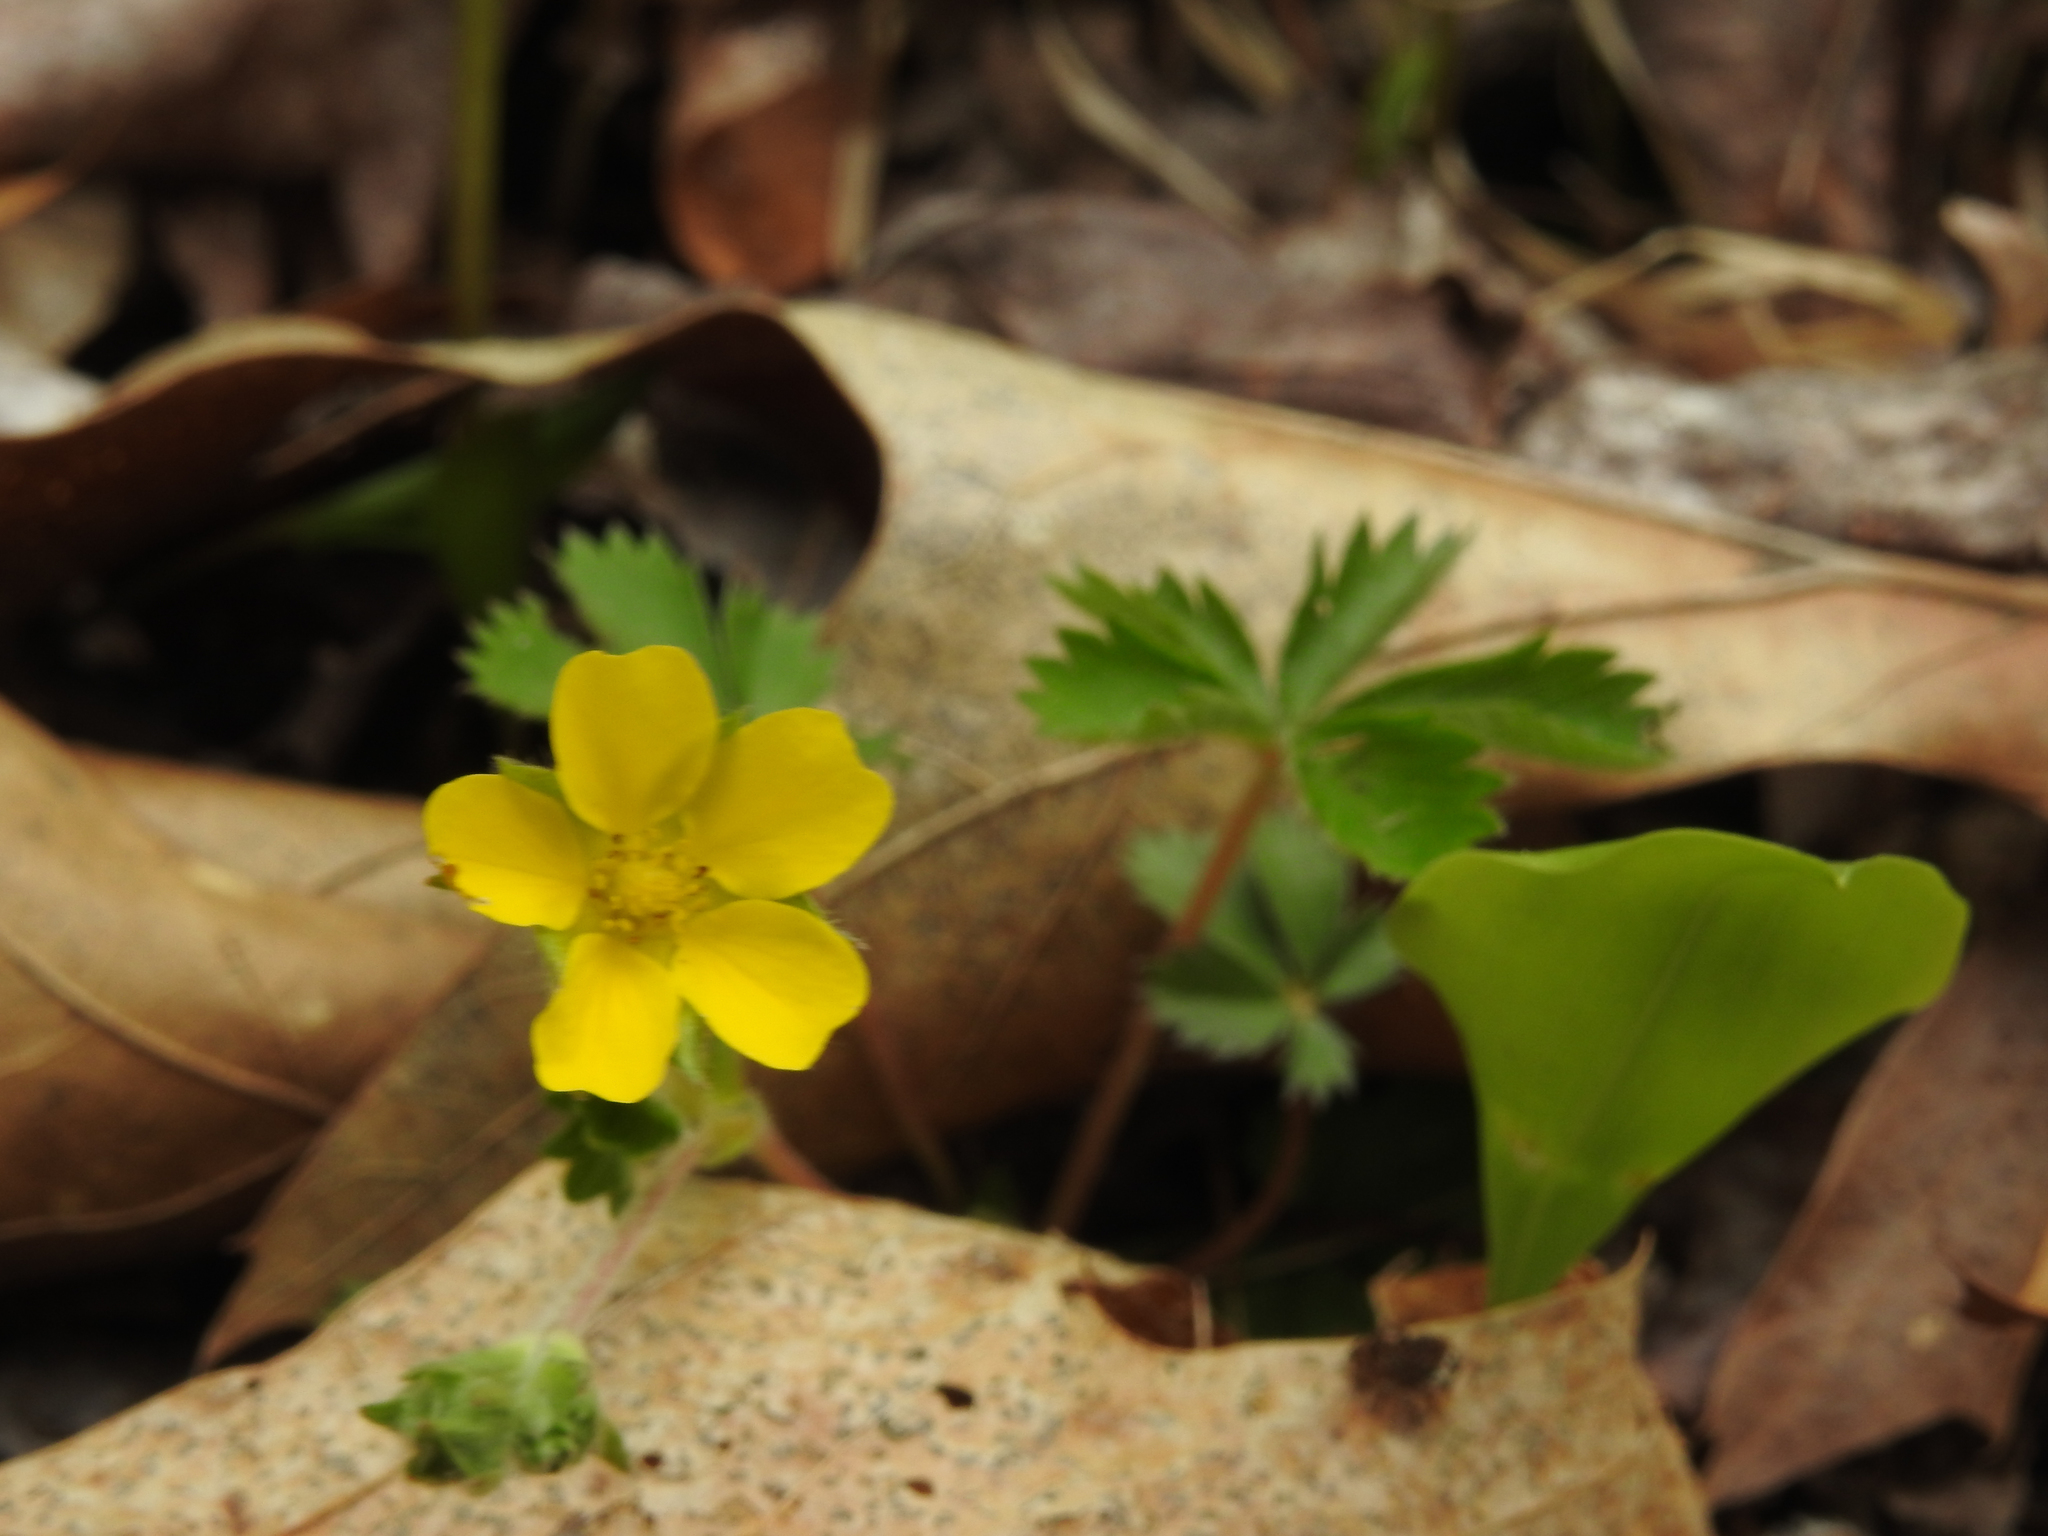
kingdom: Plantae
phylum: Tracheophyta
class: Magnoliopsida
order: Rosales
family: Rosaceae
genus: Potentilla
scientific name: Potentilla canadensis
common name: Canada cinquefoil
